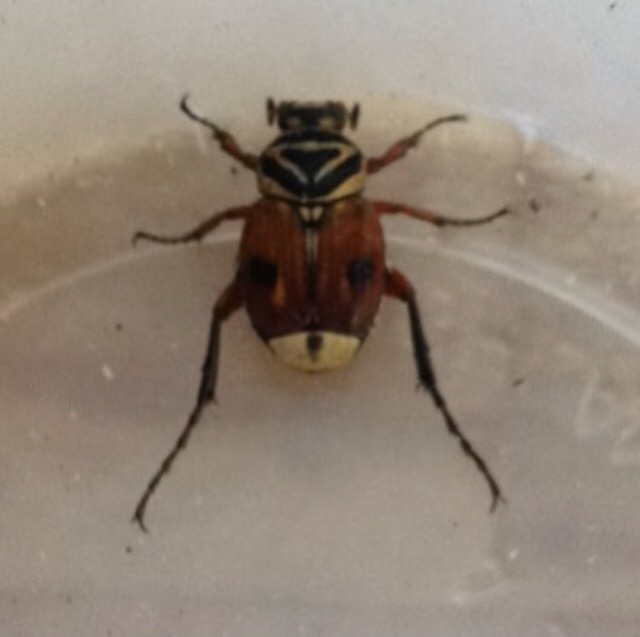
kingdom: Animalia
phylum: Arthropoda
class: Insecta
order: Coleoptera
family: Scarabaeidae
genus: Trigonopeltastes
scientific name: Trigonopeltastes delta
